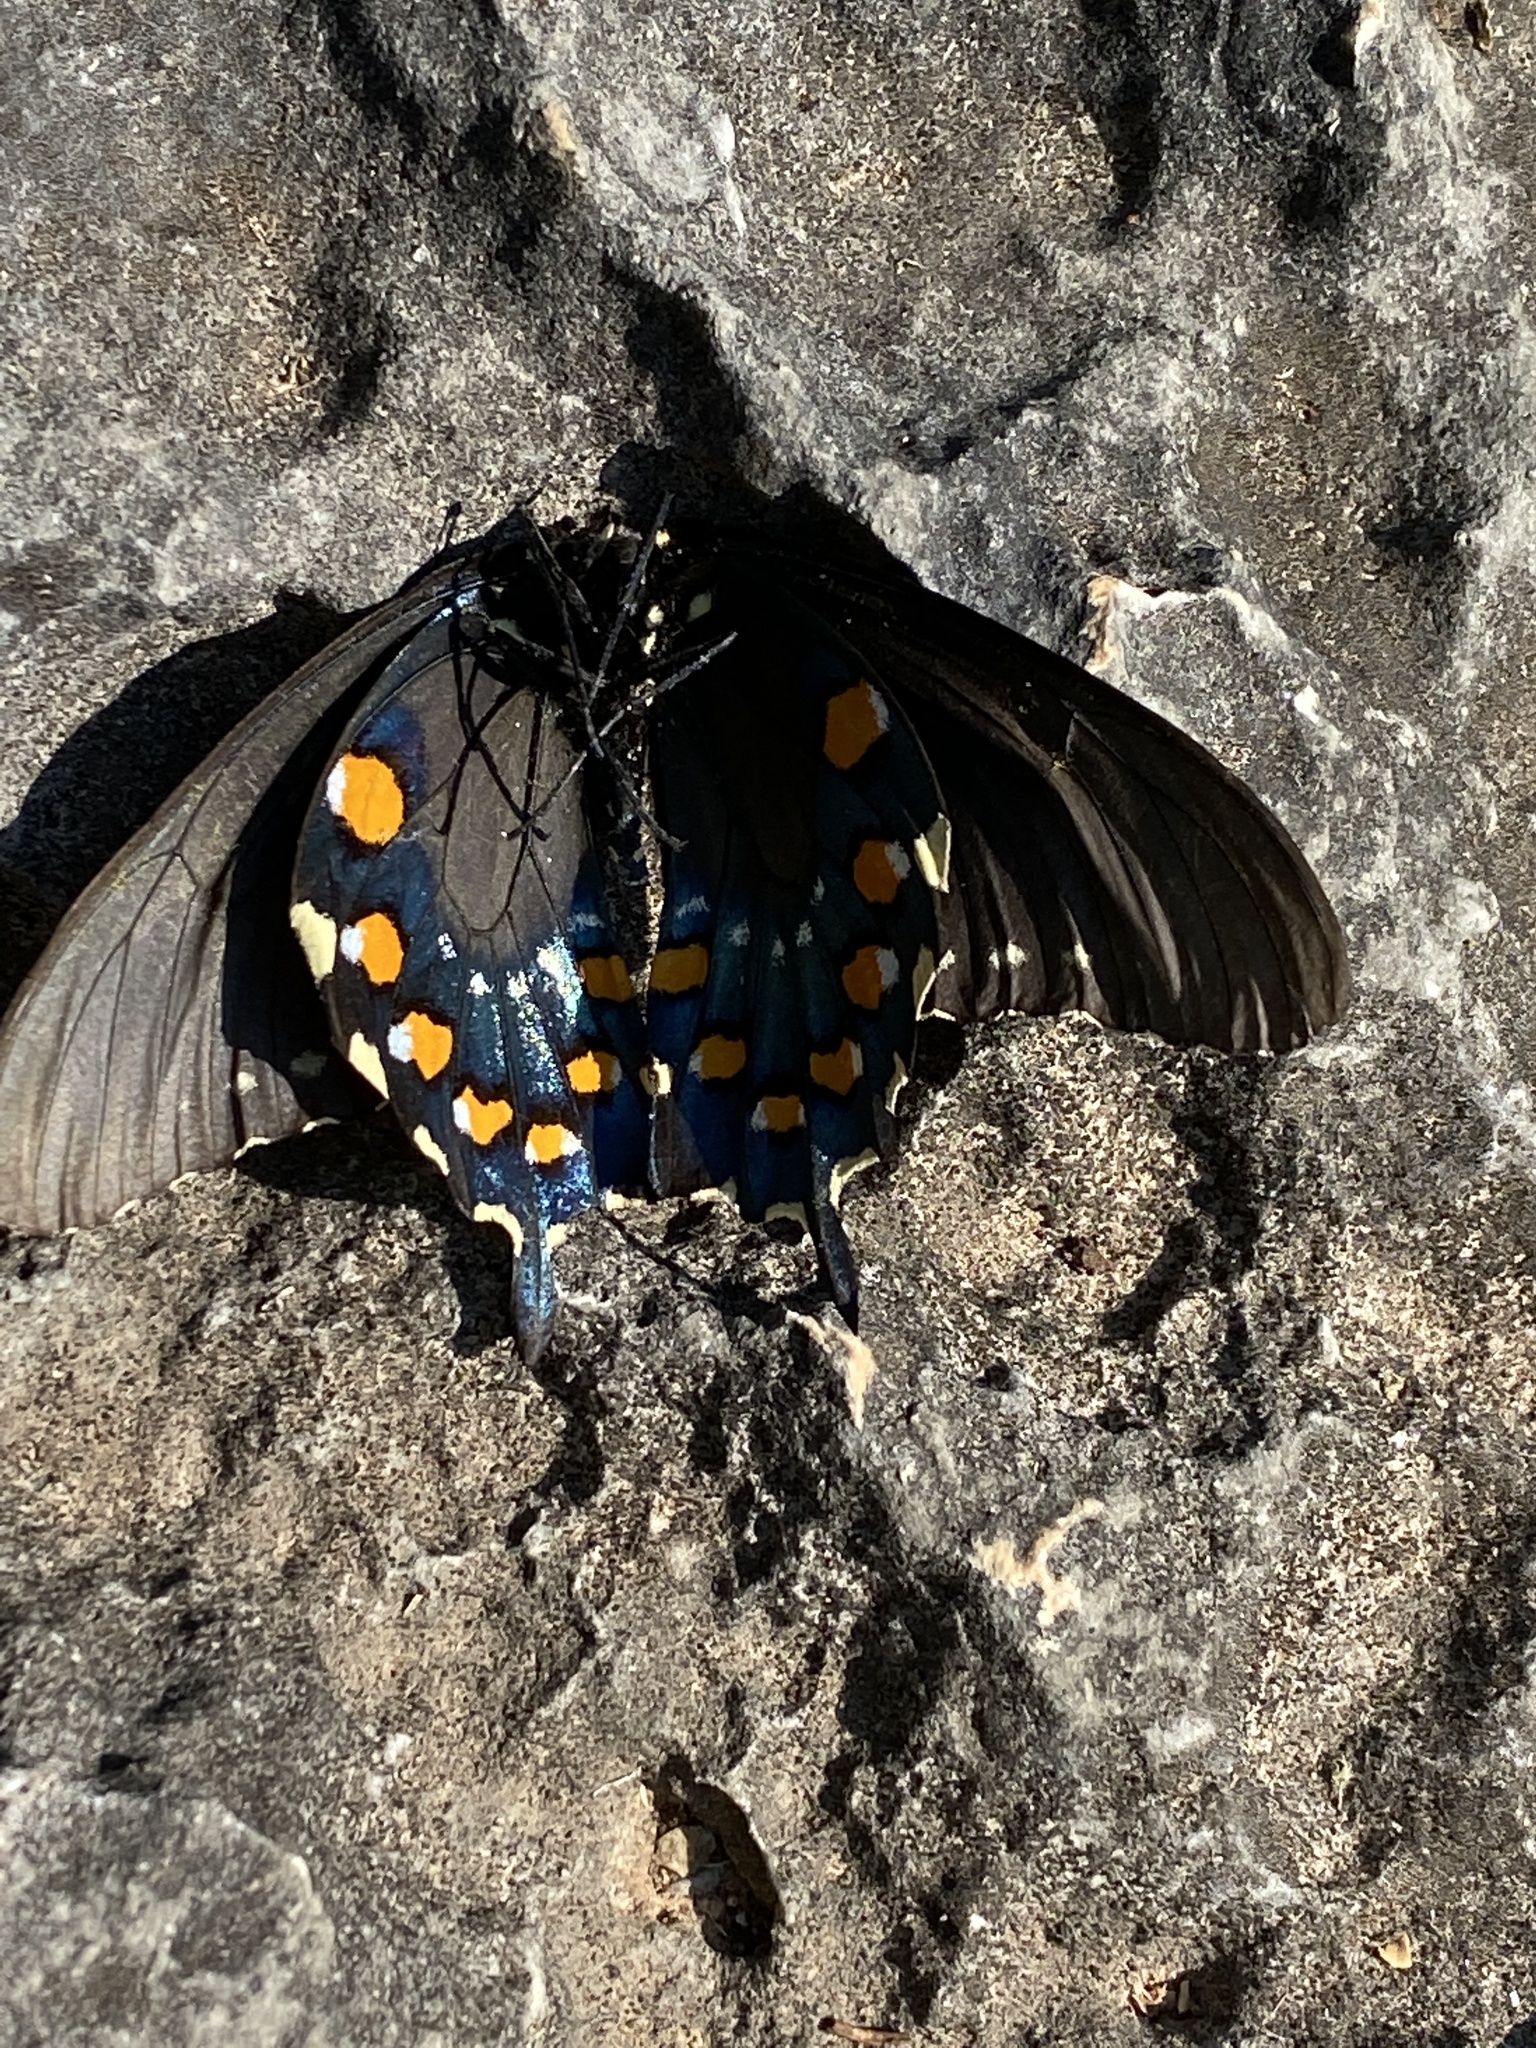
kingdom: Animalia
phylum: Arthropoda
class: Insecta
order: Lepidoptera
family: Papilionidae
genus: Battus
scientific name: Battus philenor
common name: Pipevine swallowtail
